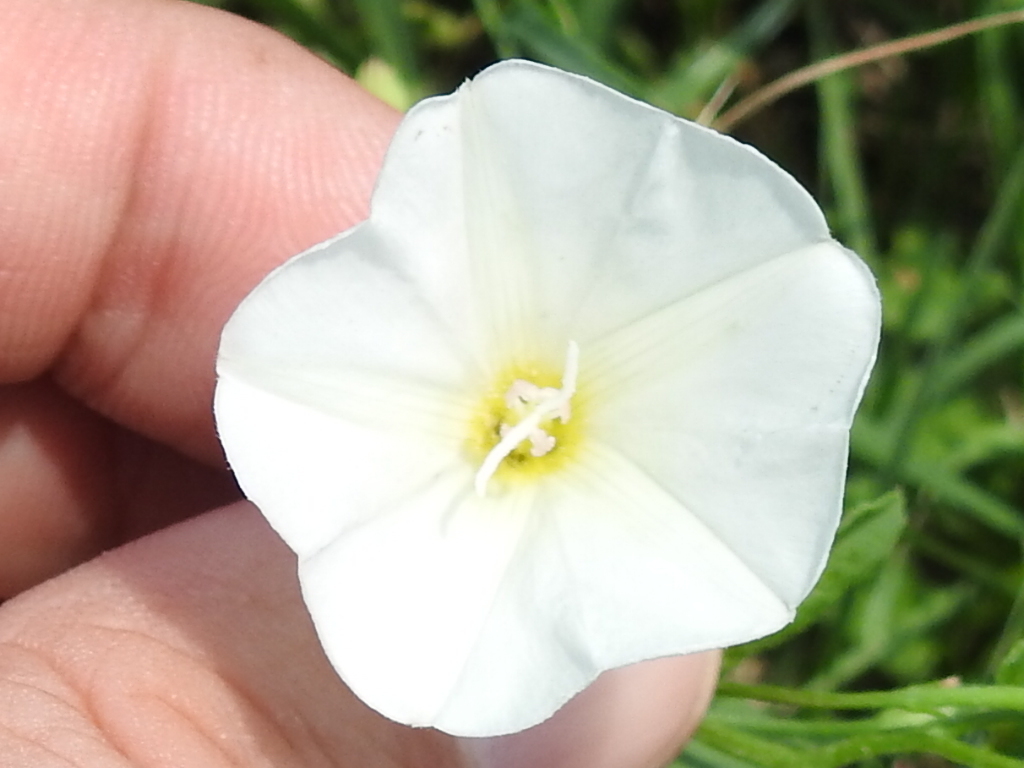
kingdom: Plantae
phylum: Tracheophyta
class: Magnoliopsida
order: Solanales
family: Convolvulaceae
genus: Convolvulus
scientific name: Convolvulus arvensis
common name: Field bindweed
